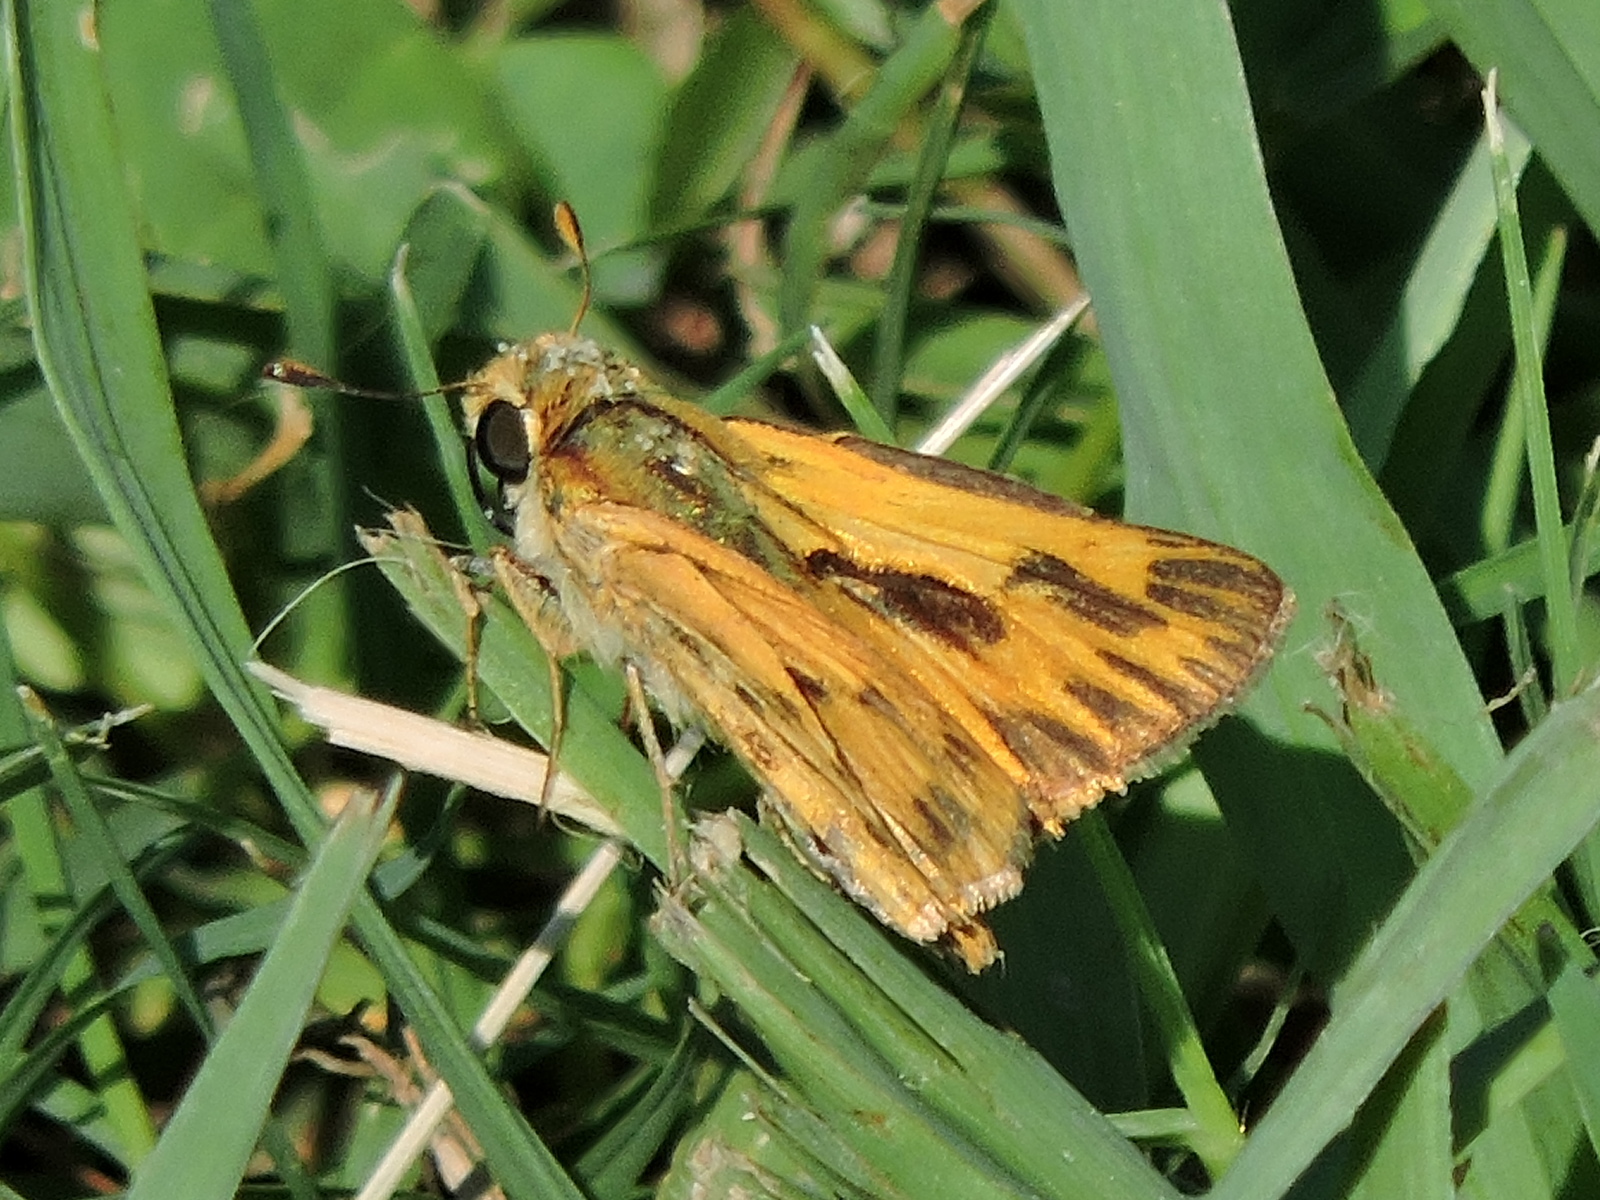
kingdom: Animalia
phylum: Arthropoda
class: Insecta
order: Lepidoptera
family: Hesperiidae
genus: Hylephila
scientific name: Hylephila phyleus
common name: Fiery skipper
